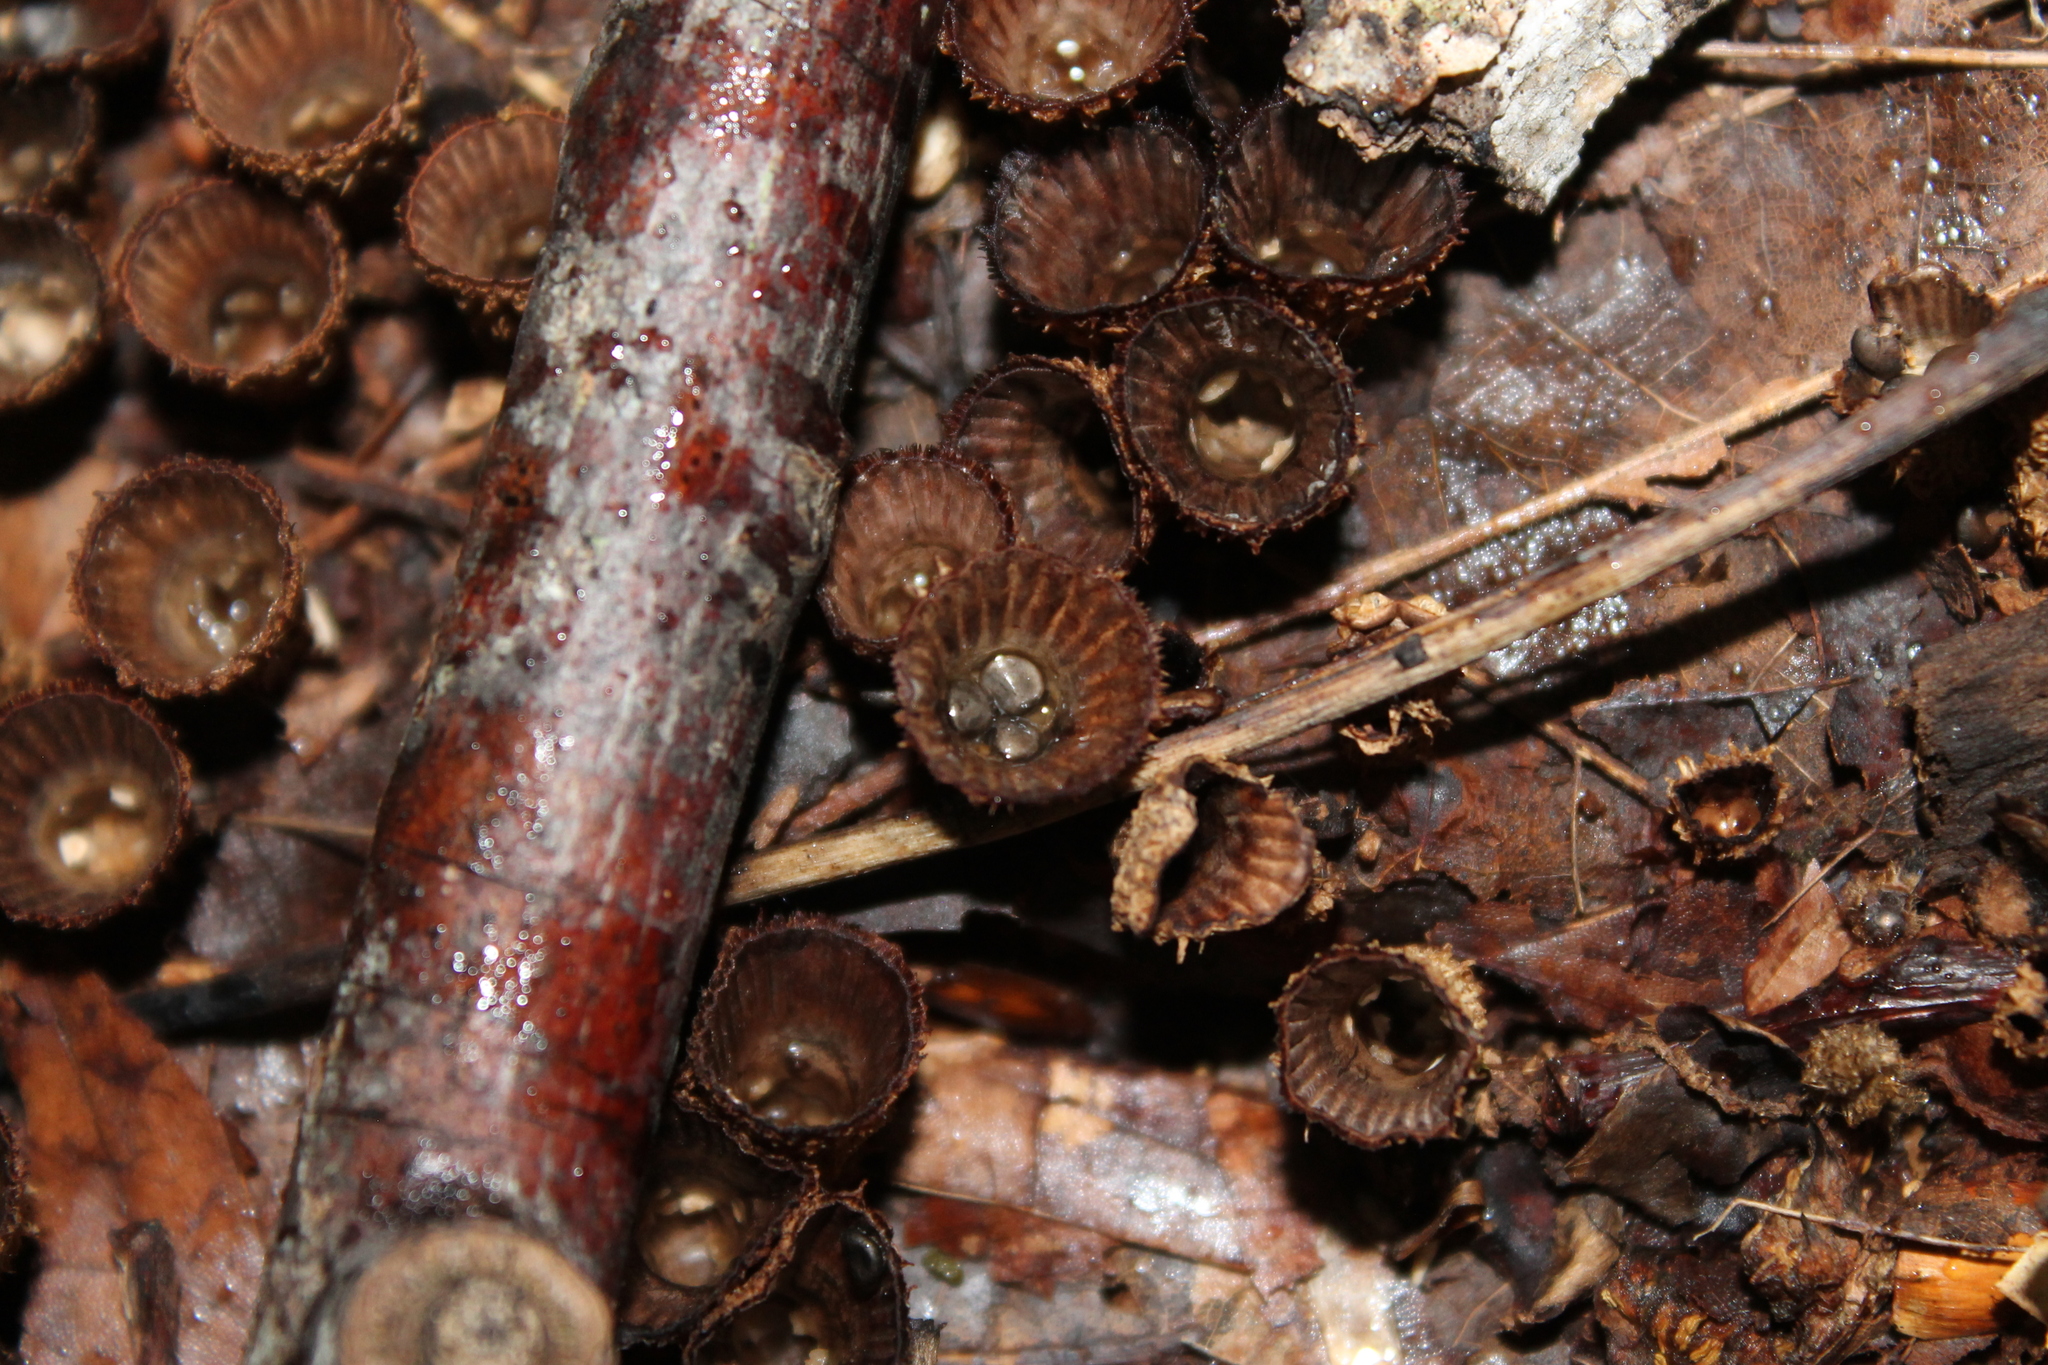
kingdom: Fungi
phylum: Basidiomycota
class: Agaricomycetes
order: Agaricales
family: Agaricaceae
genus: Cyathus
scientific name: Cyathus striatus
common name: Fluted bird's nest
